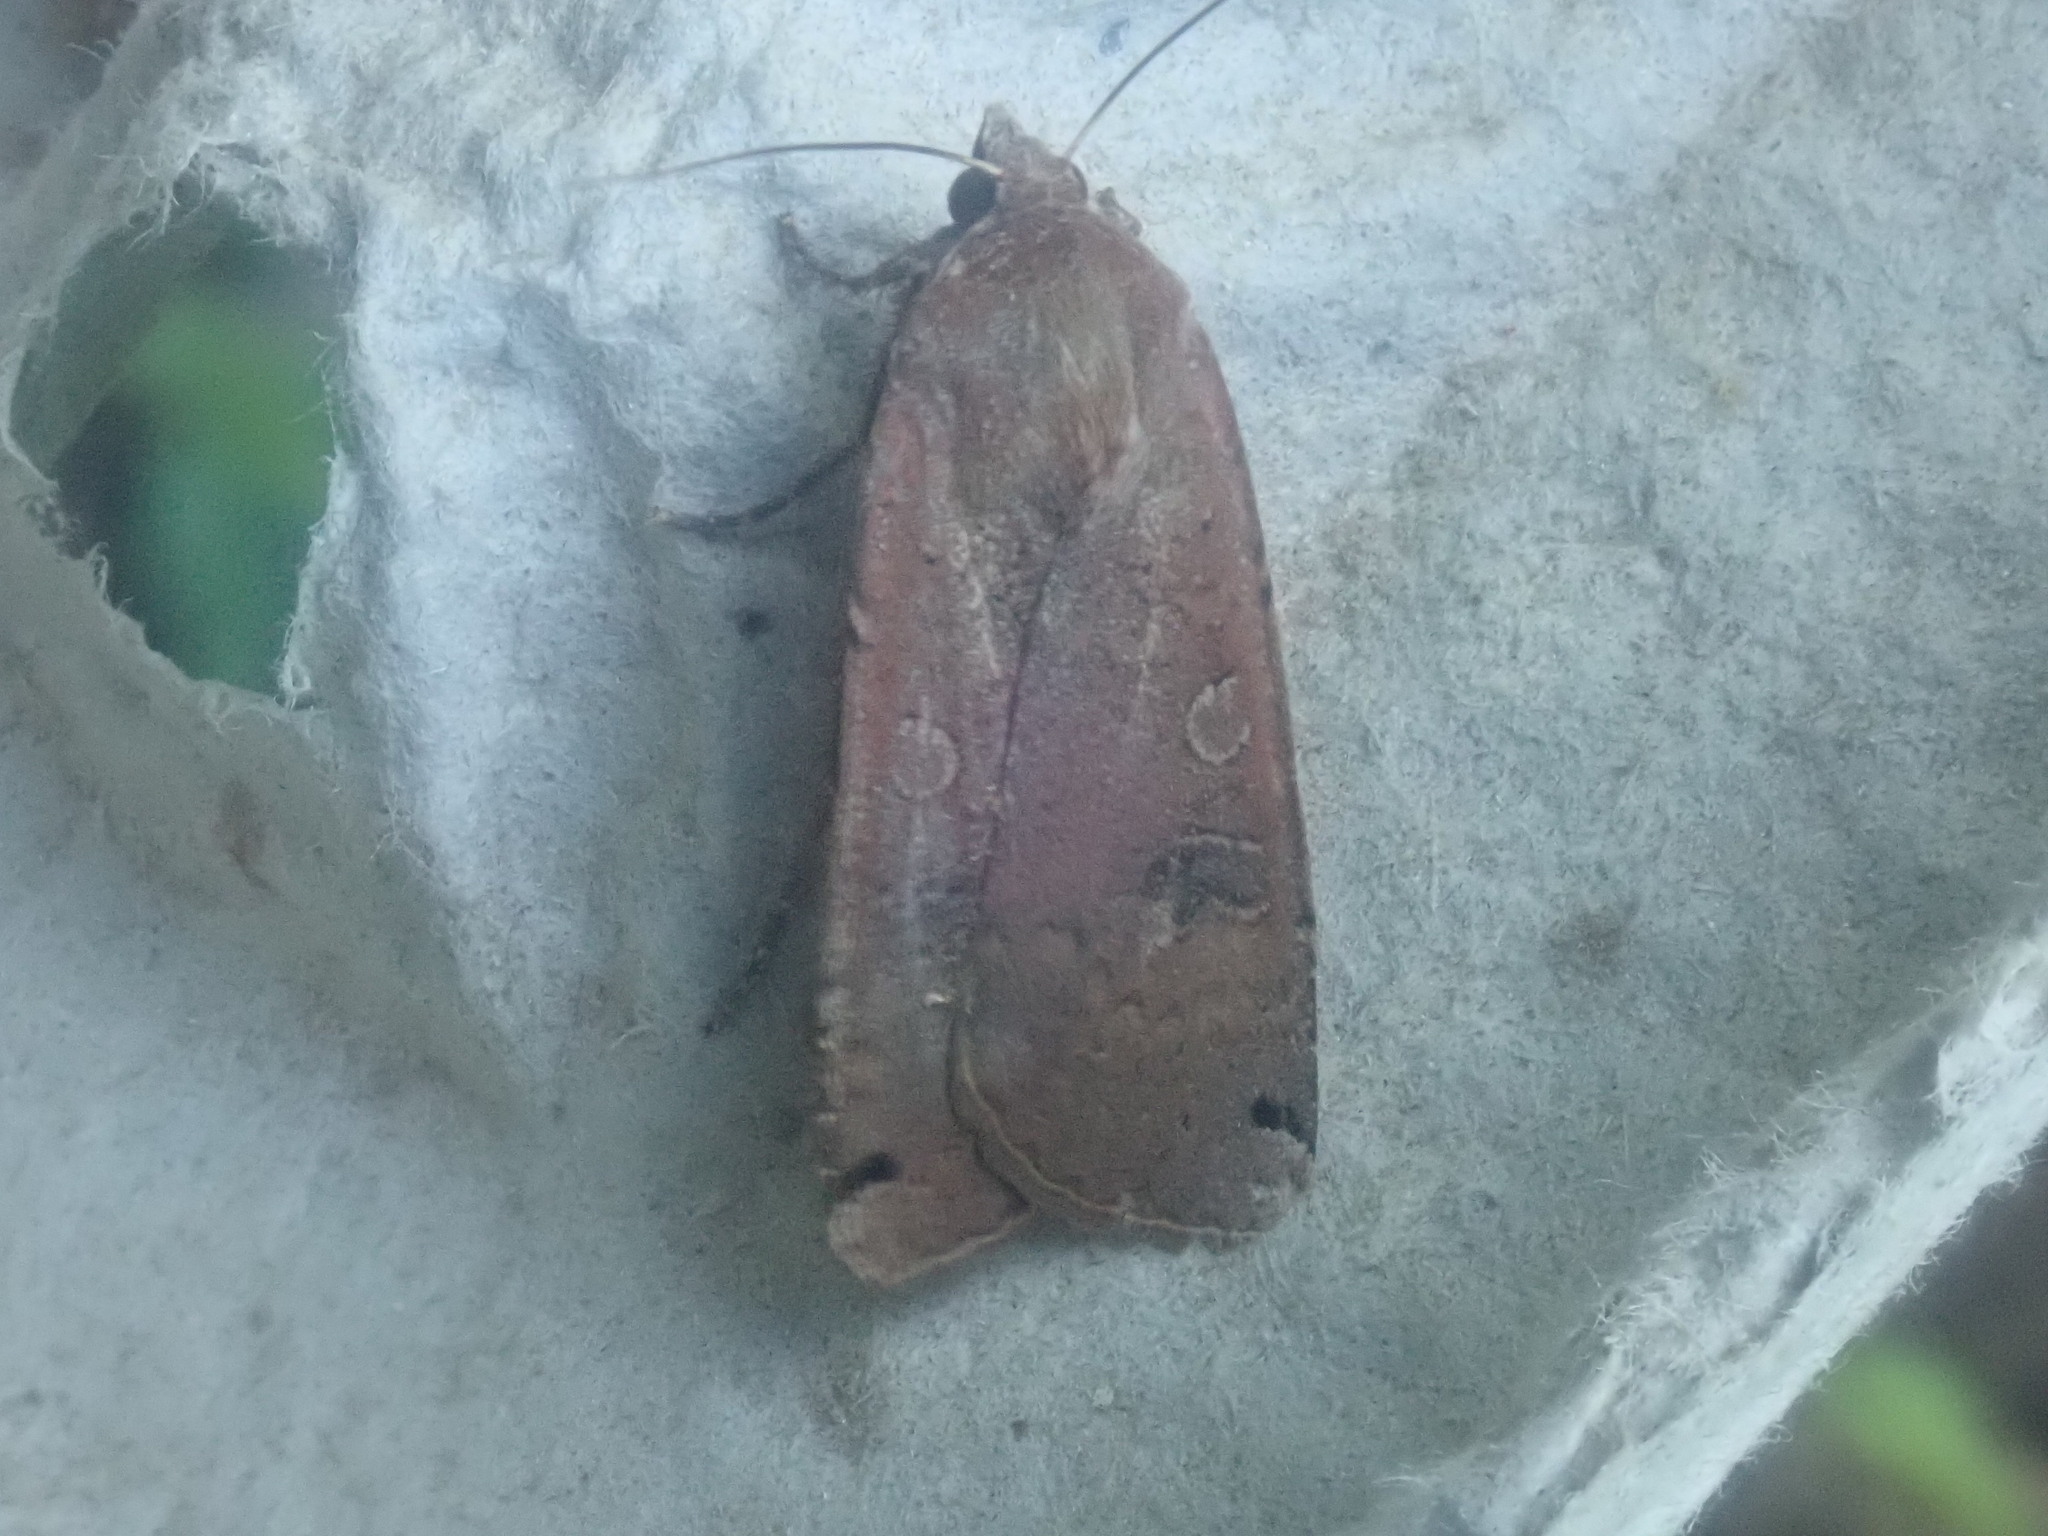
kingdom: Animalia
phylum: Arthropoda
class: Insecta
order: Lepidoptera
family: Noctuidae
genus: Noctua
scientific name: Noctua pronuba
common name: Large yellow underwing
